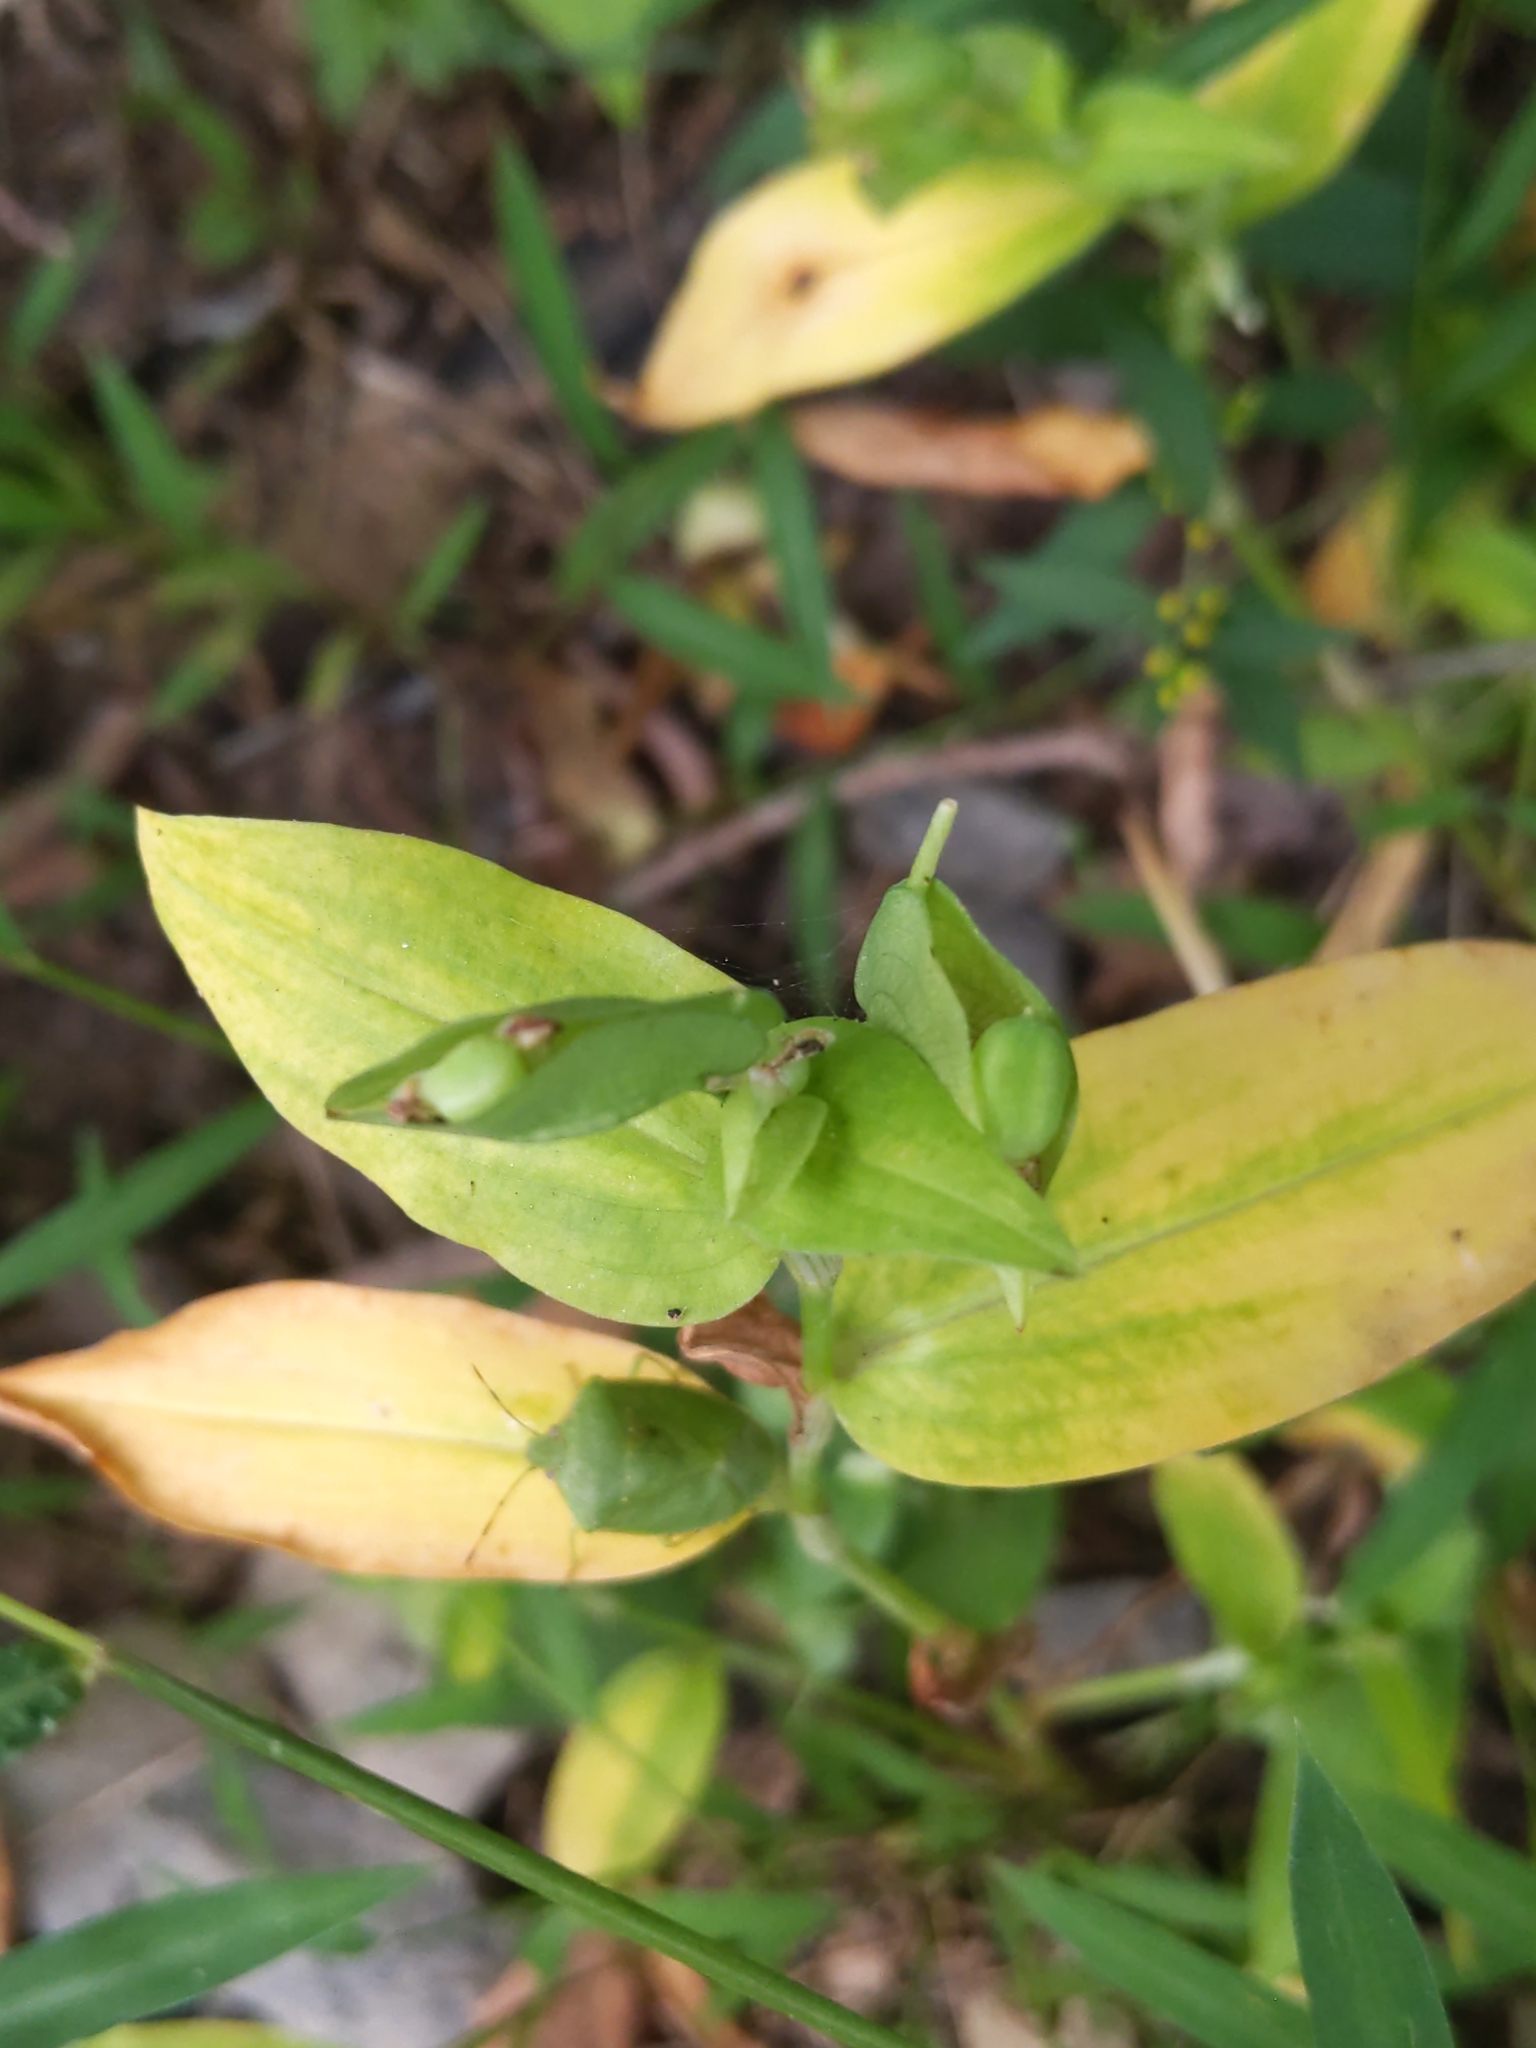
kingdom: Plantae
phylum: Tracheophyta
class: Liliopsida
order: Commelinales
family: Commelinaceae
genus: Commelina
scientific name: Commelina communis
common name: Asiatic dayflower
